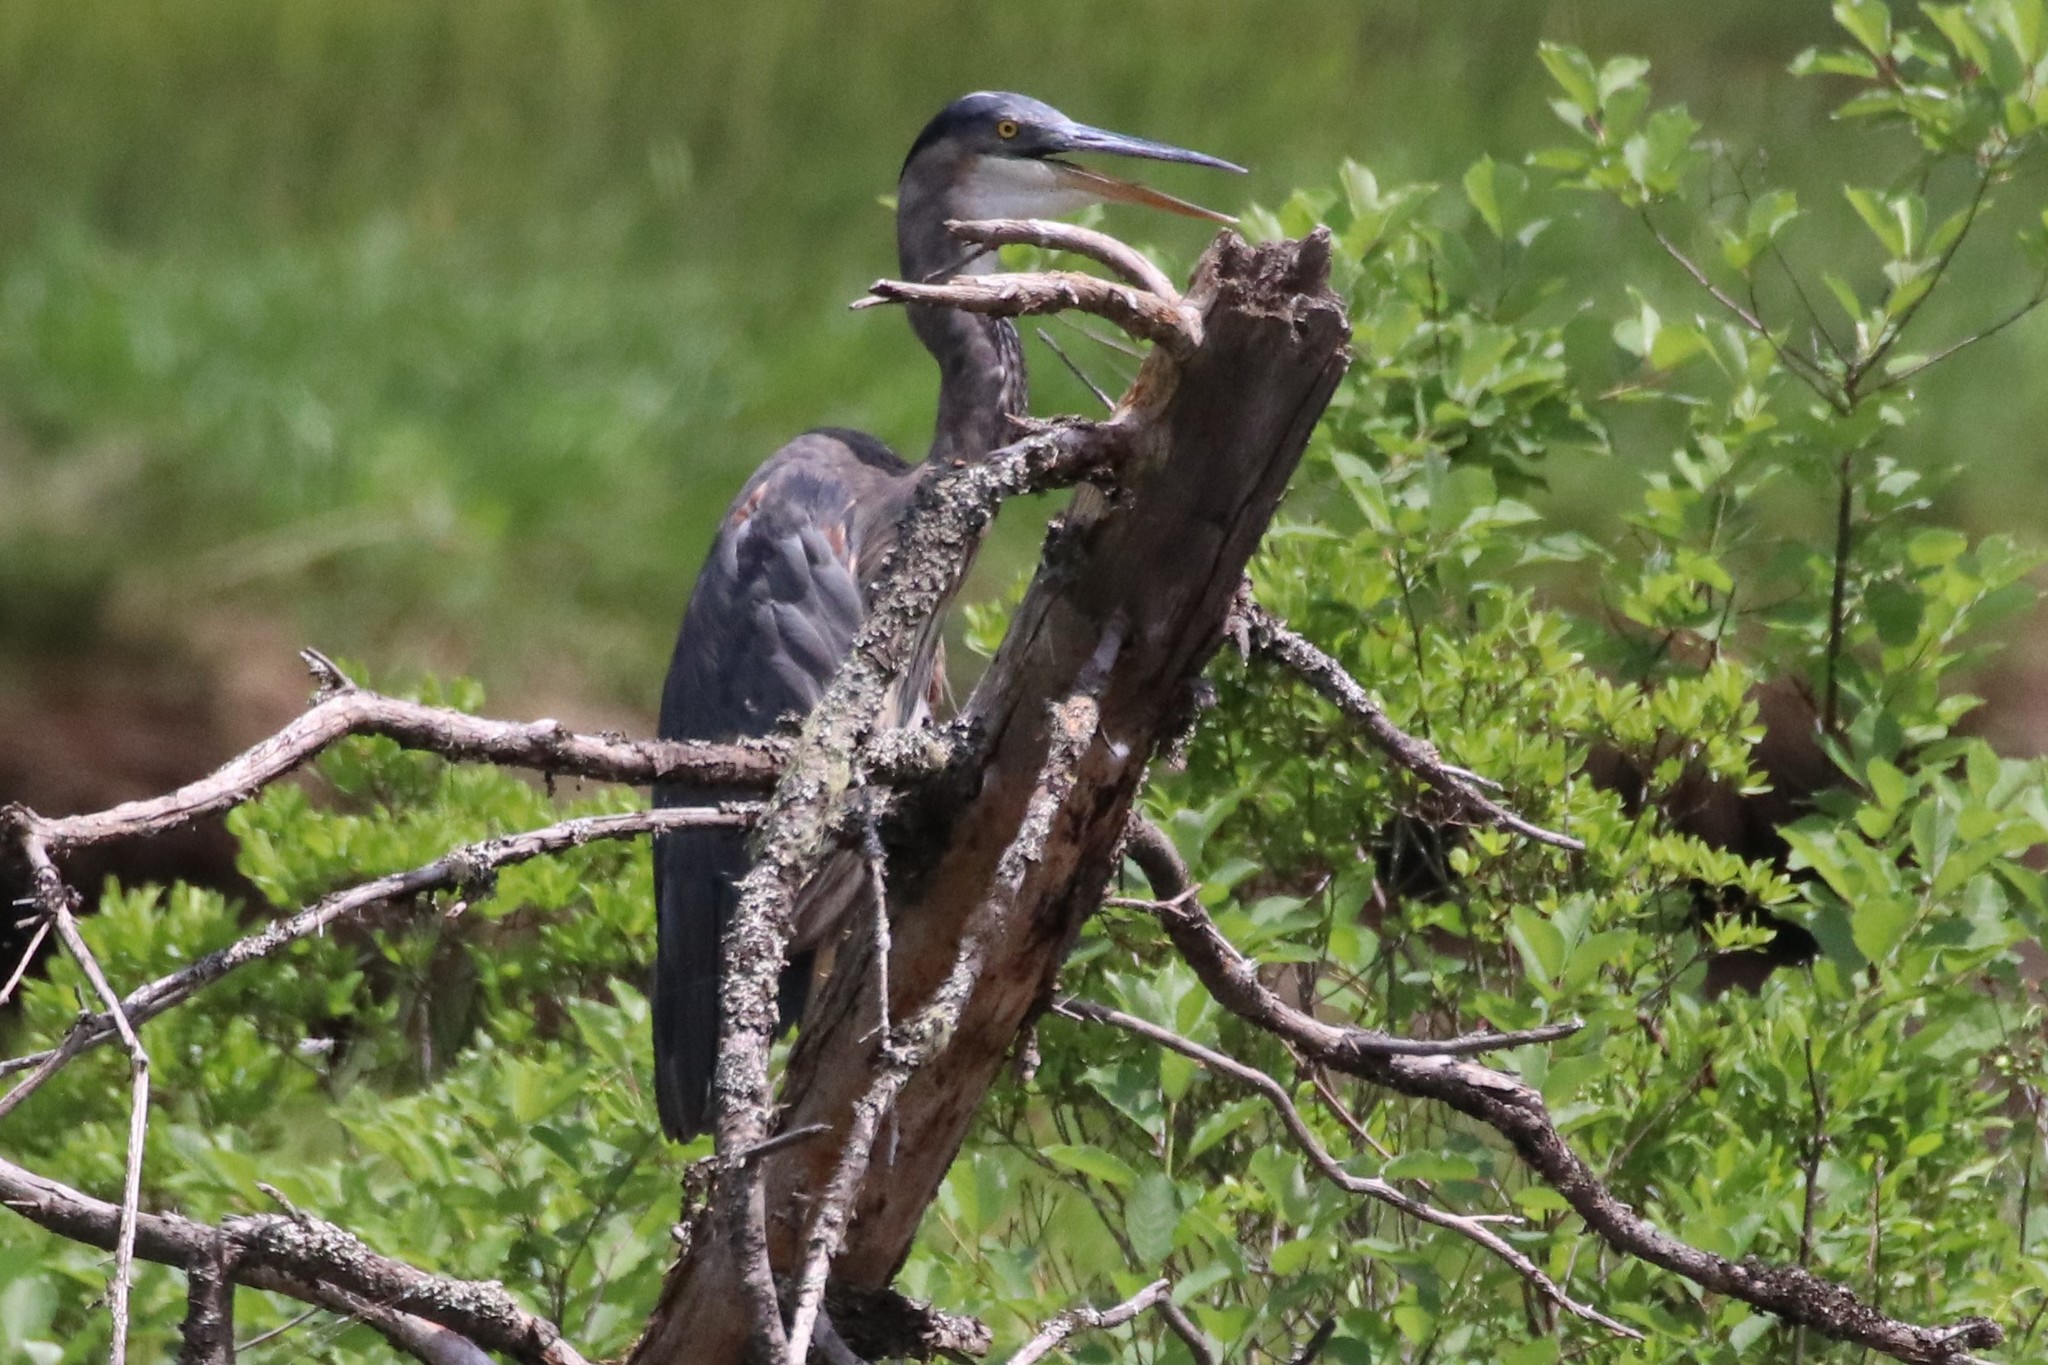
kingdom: Animalia
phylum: Chordata
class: Aves
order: Pelecaniformes
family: Ardeidae
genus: Ardea
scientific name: Ardea herodias
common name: Great blue heron
